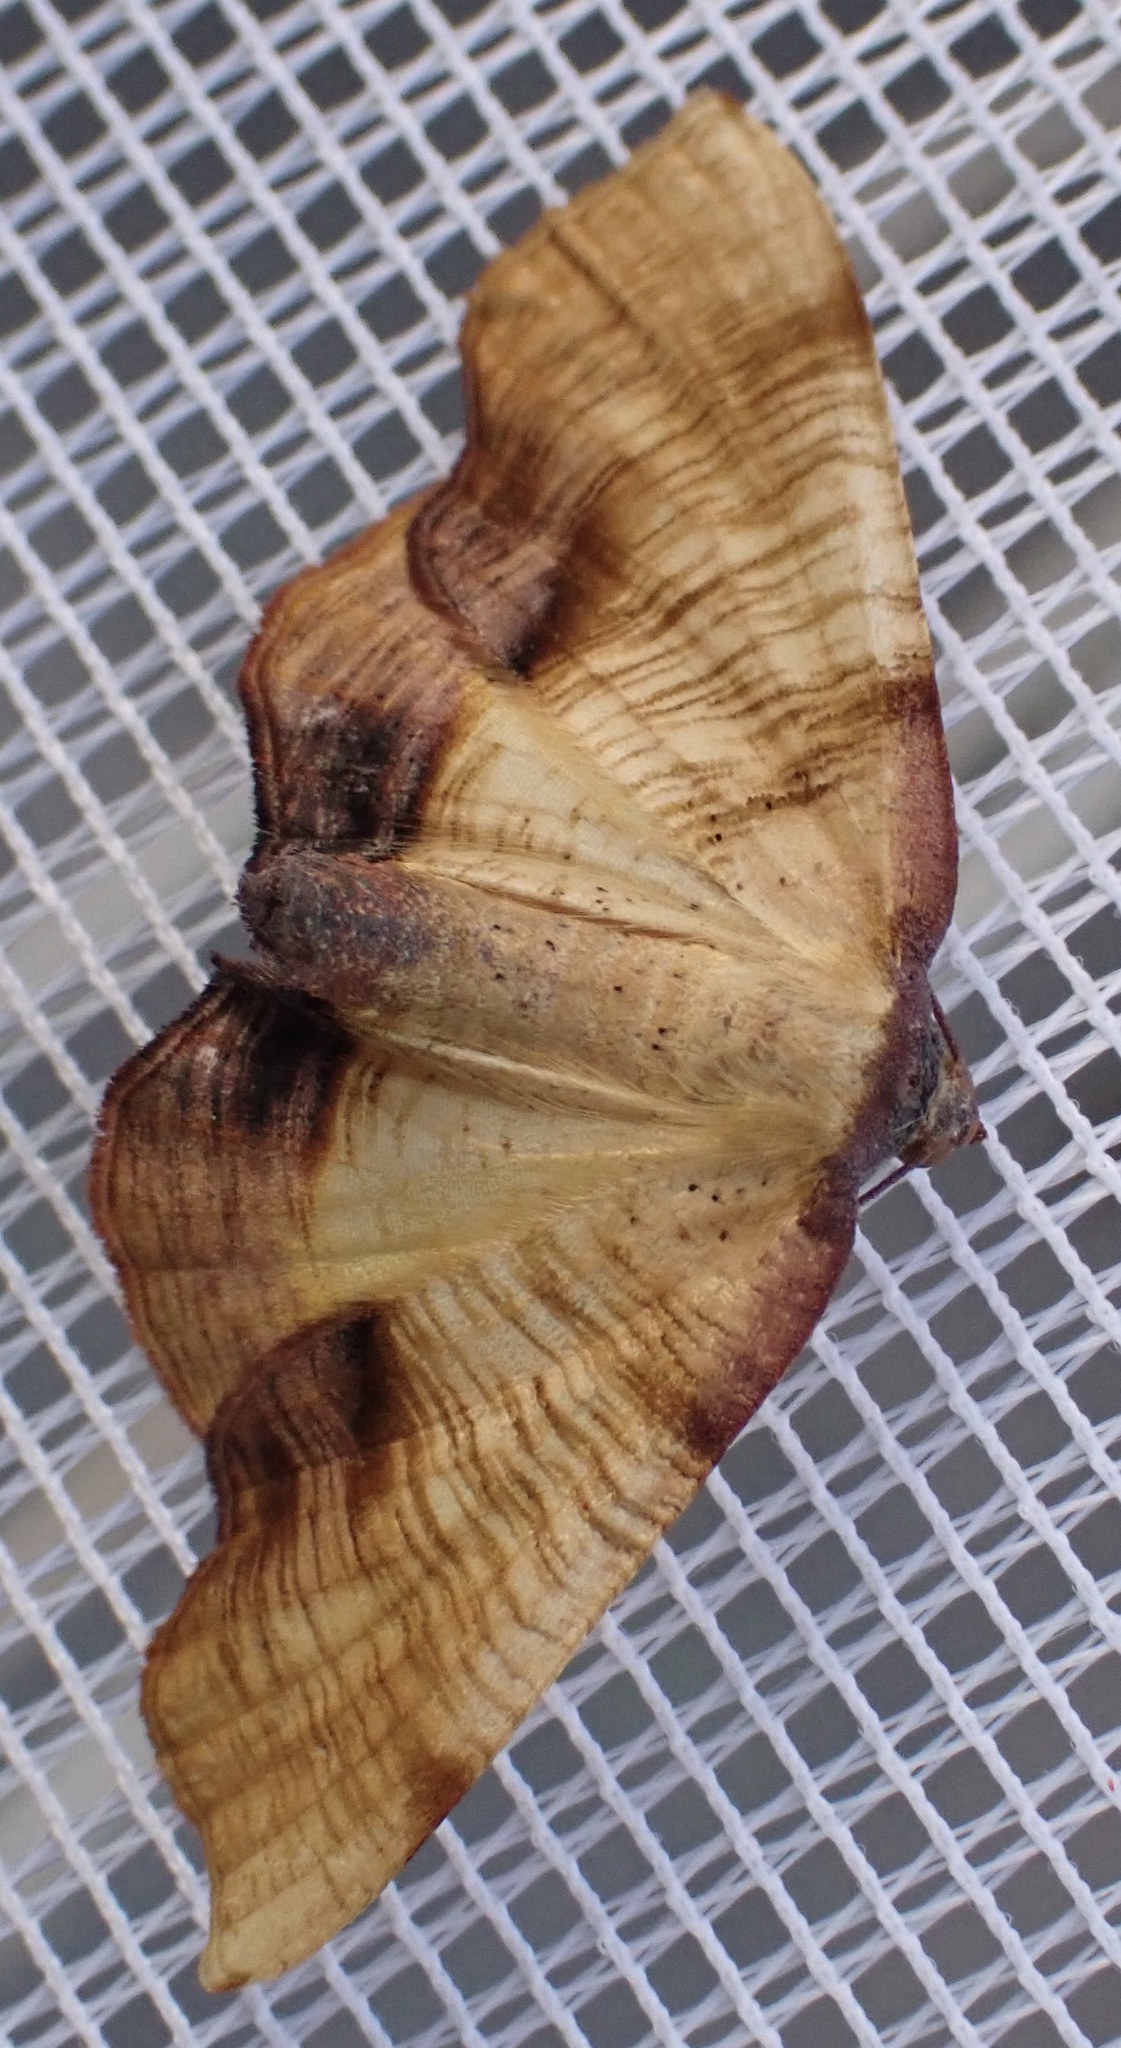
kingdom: Animalia
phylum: Arthropoda
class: Insecta
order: Lepidoptera
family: Geometridae
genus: Plagodis
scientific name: Plagodis dolabraria
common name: Scorched wing
